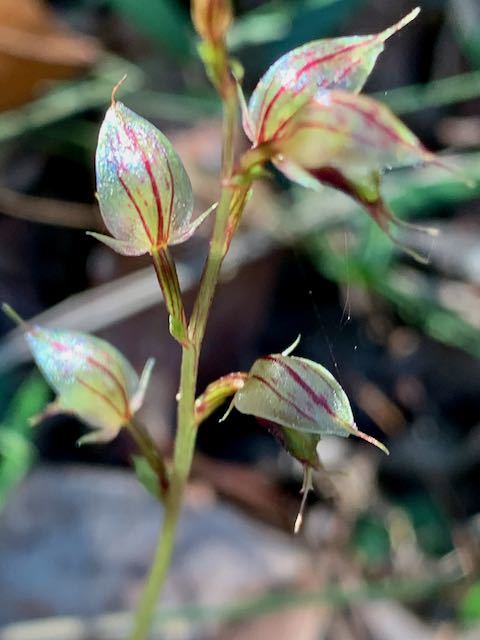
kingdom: Plantae
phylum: Tracheophyta
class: Liliopsida
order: Asparagales
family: Orchidaceae
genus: Acianthus
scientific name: Acianthus fornicatus
